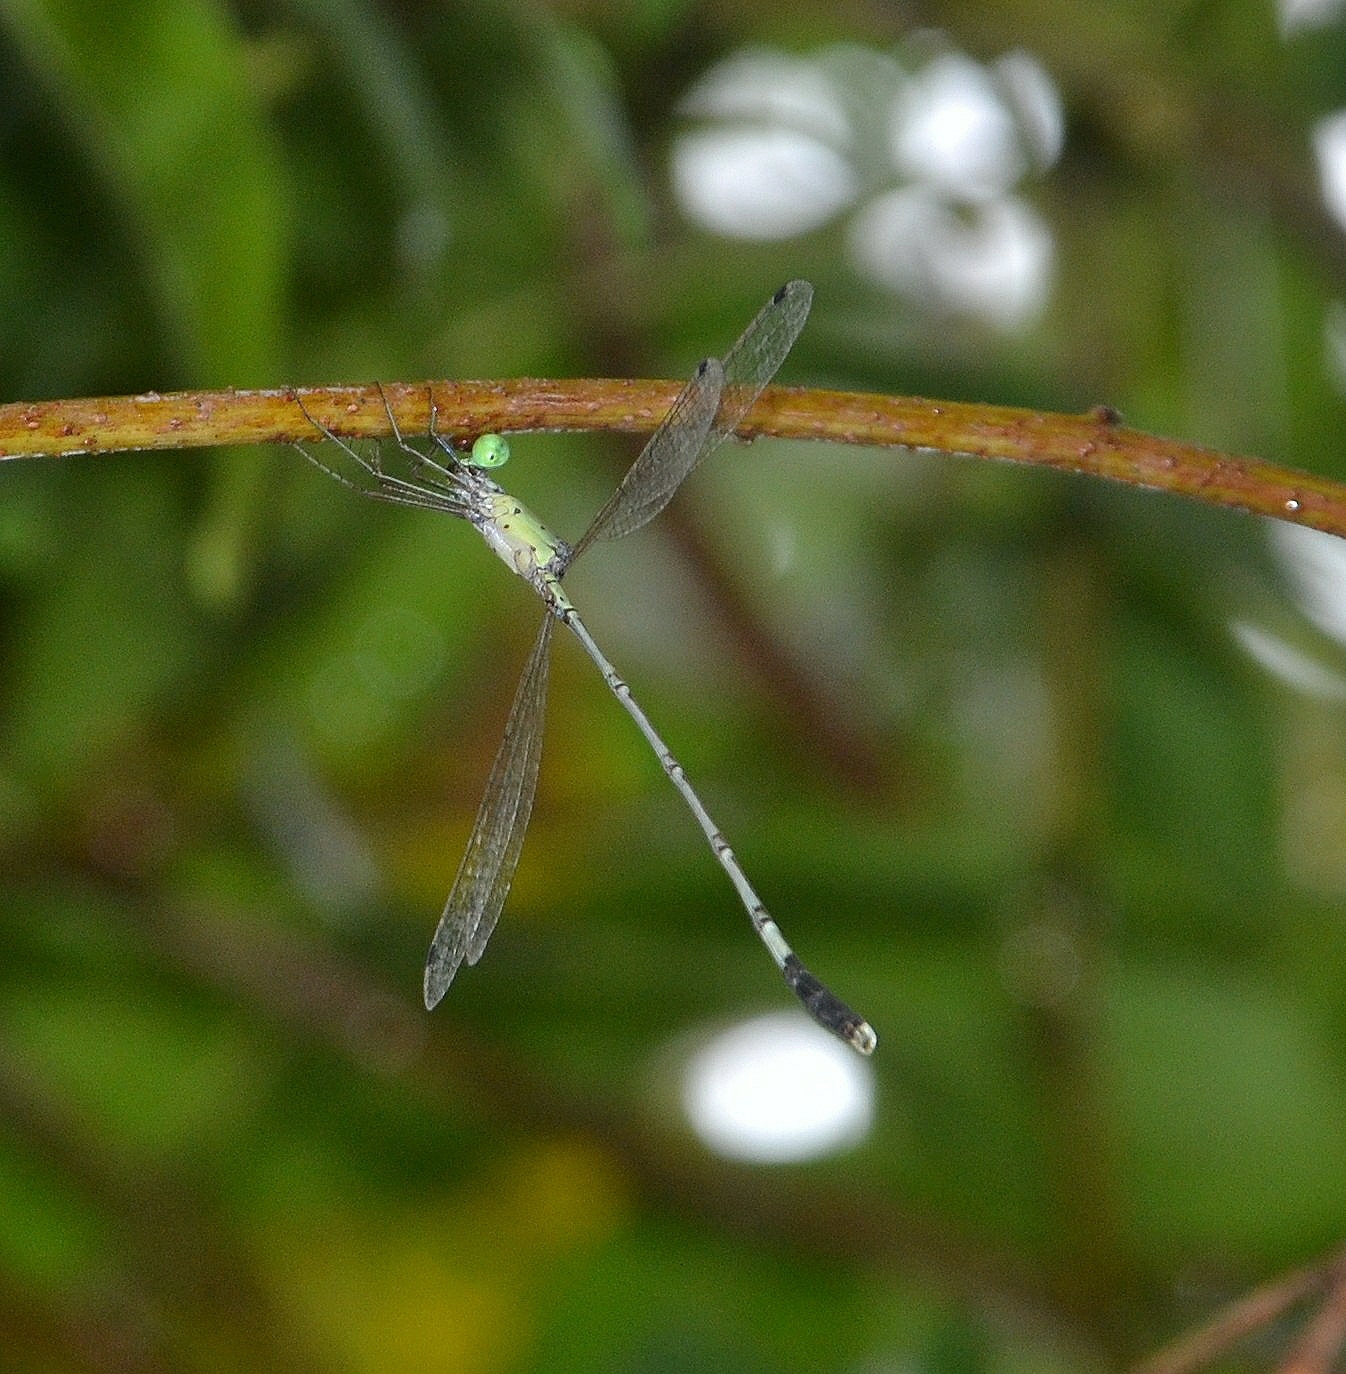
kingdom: Animalia
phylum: Arthropoda
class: Insecta
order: Odonata
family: Lestidae
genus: Platylestes
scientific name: Platylestes platystylus
